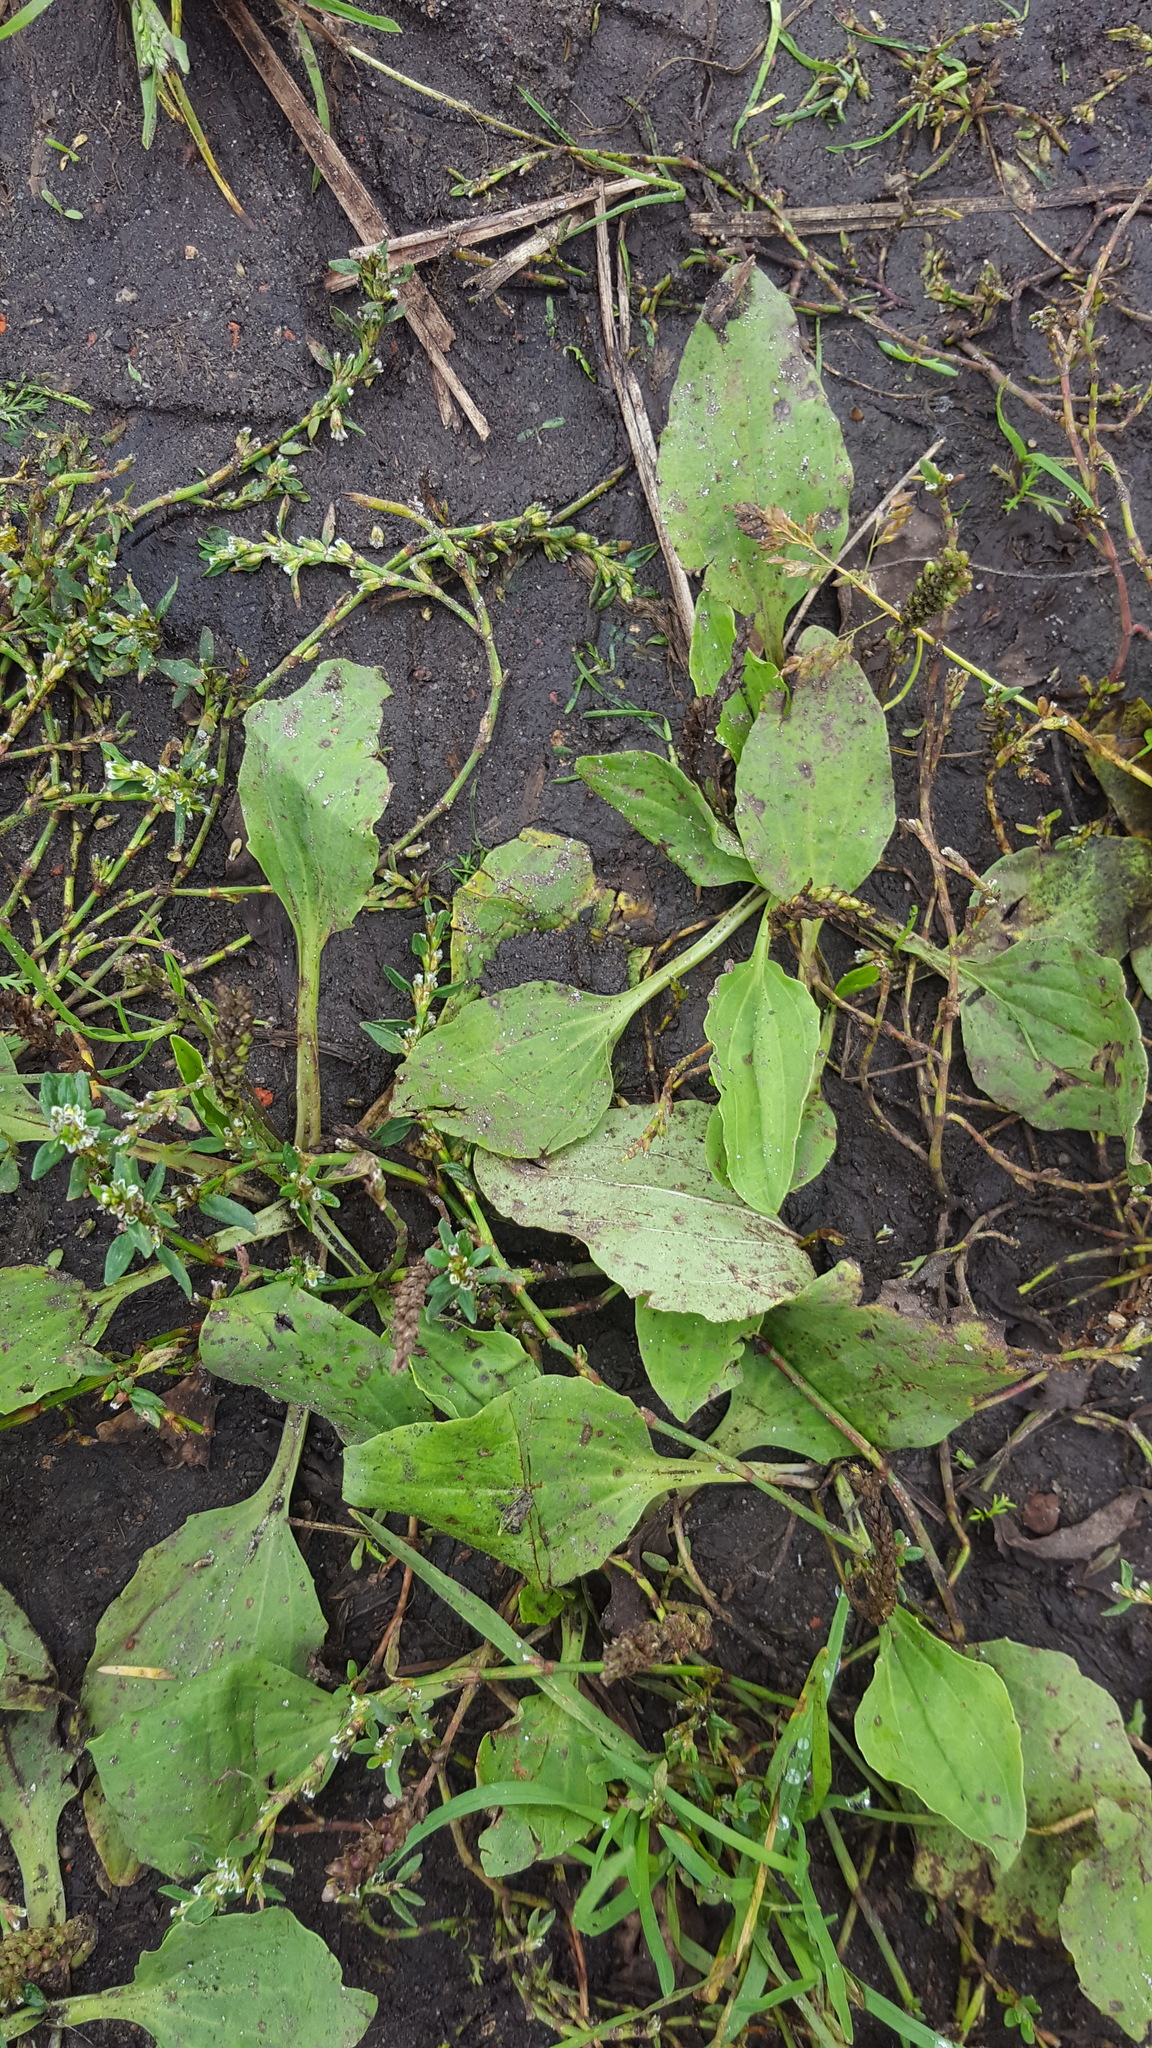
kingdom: Plantae
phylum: Tracheophyta
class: Magnoliopsida
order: Lamiales
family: Plantaginaceae
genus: Plantago
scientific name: Plantago major
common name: Common plantain
